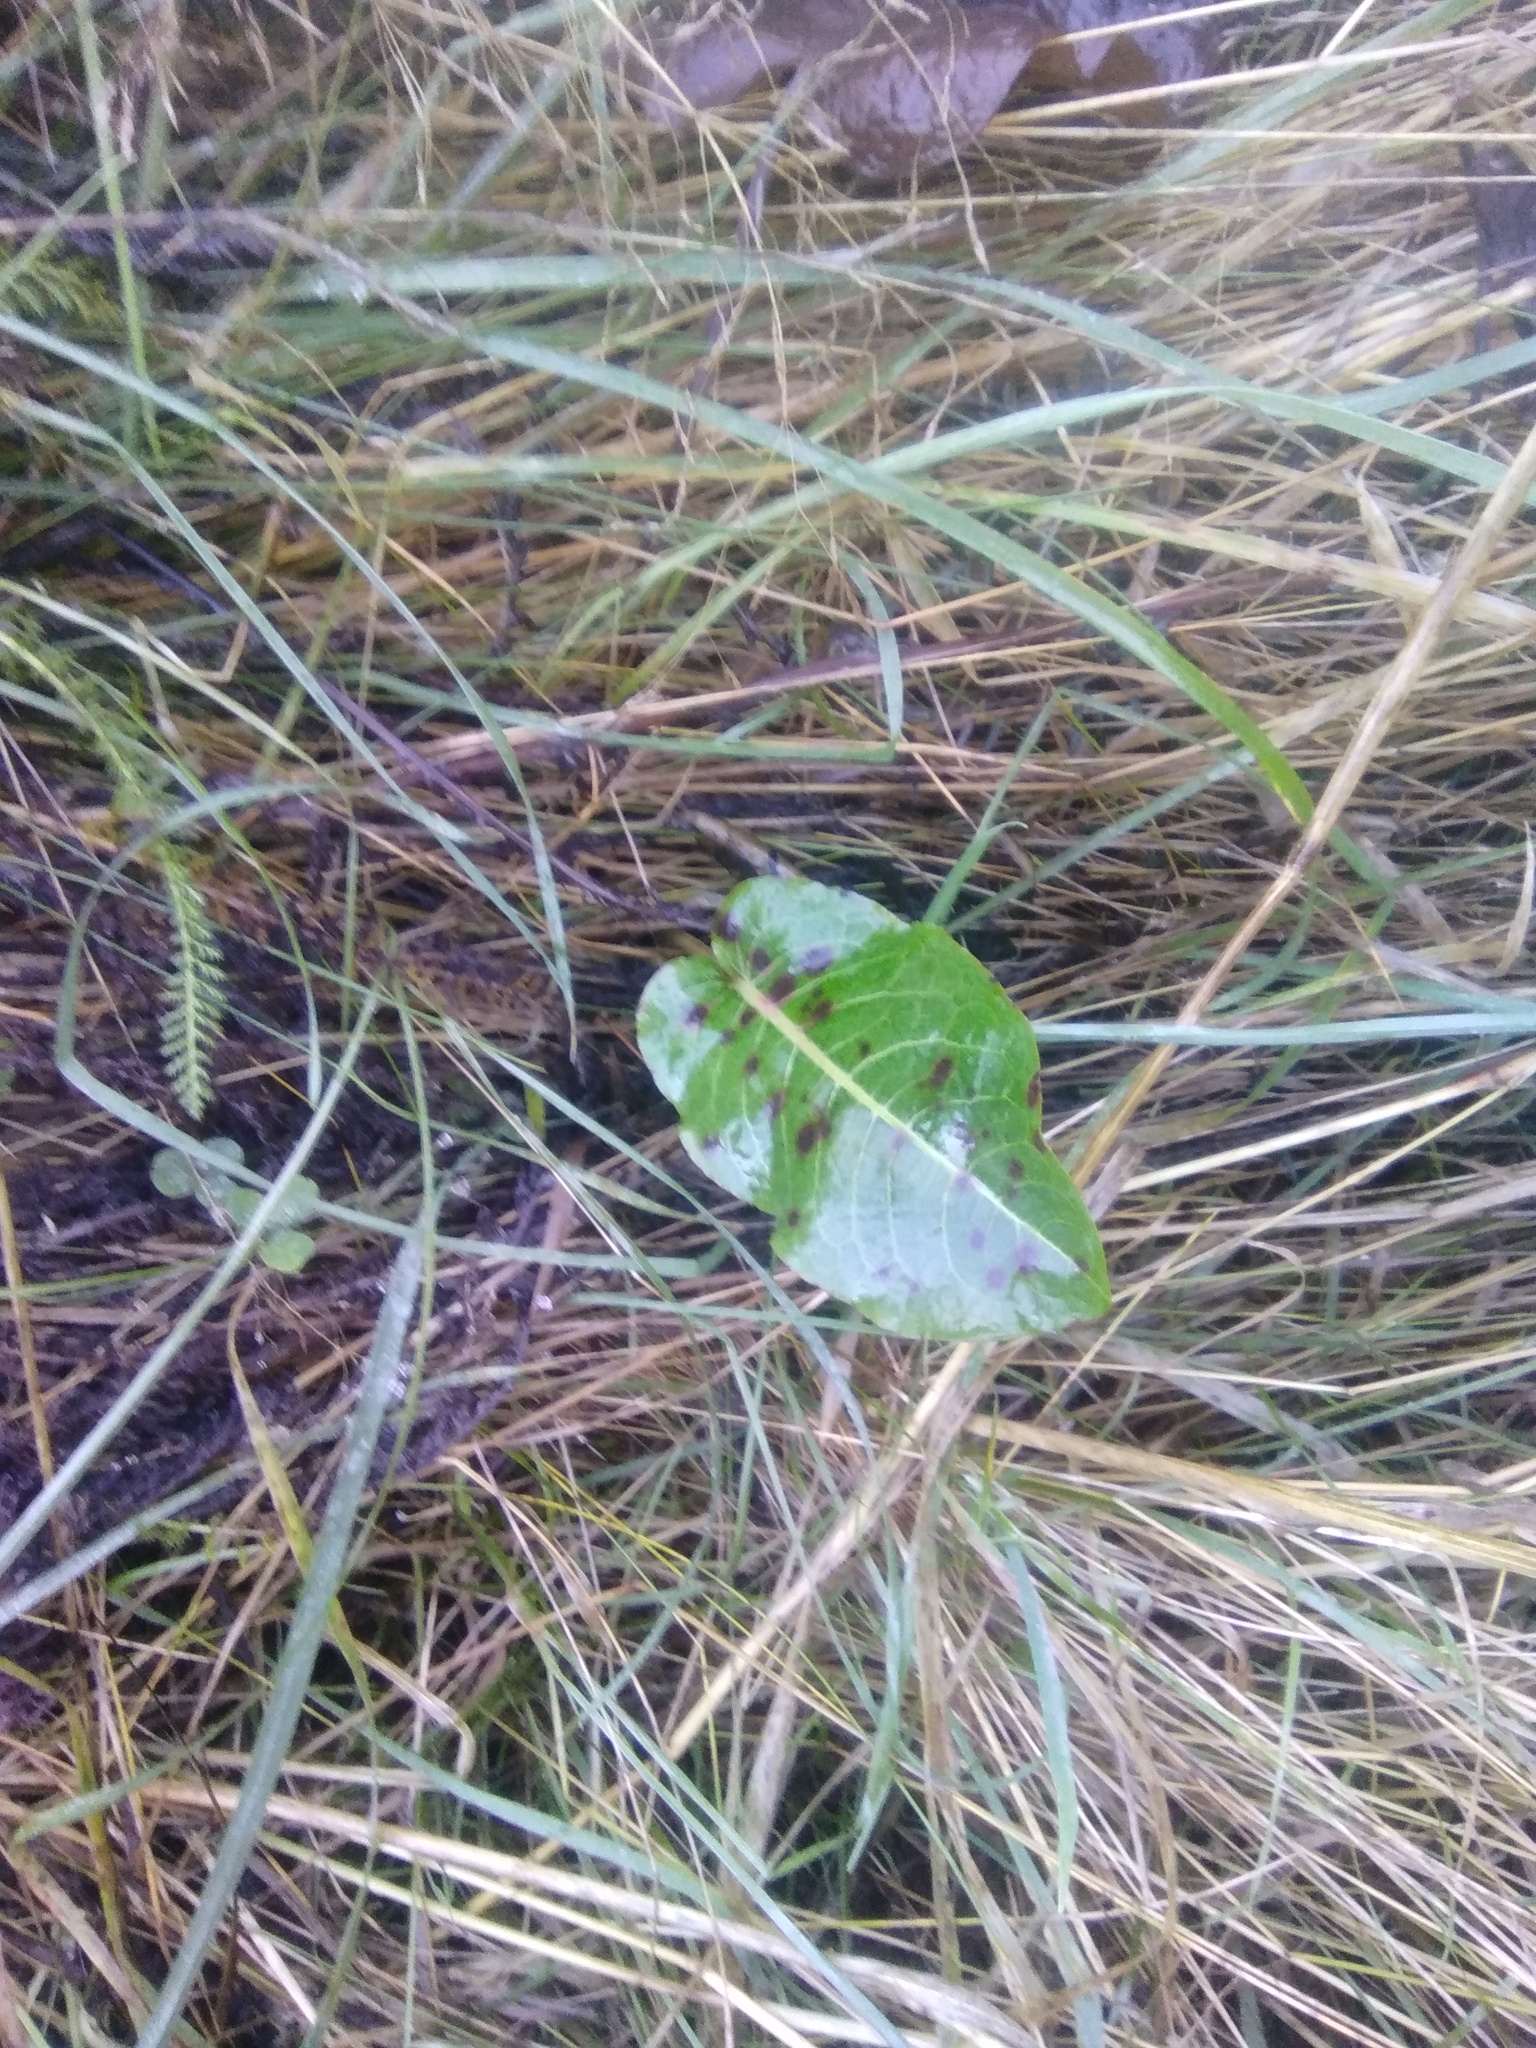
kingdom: Plantae
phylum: Tracheophyta
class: Magnoliopsida
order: Caryophyllales
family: Polygonaceae
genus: Rumex
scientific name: Rumex obtusifolius
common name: Bitter dock
